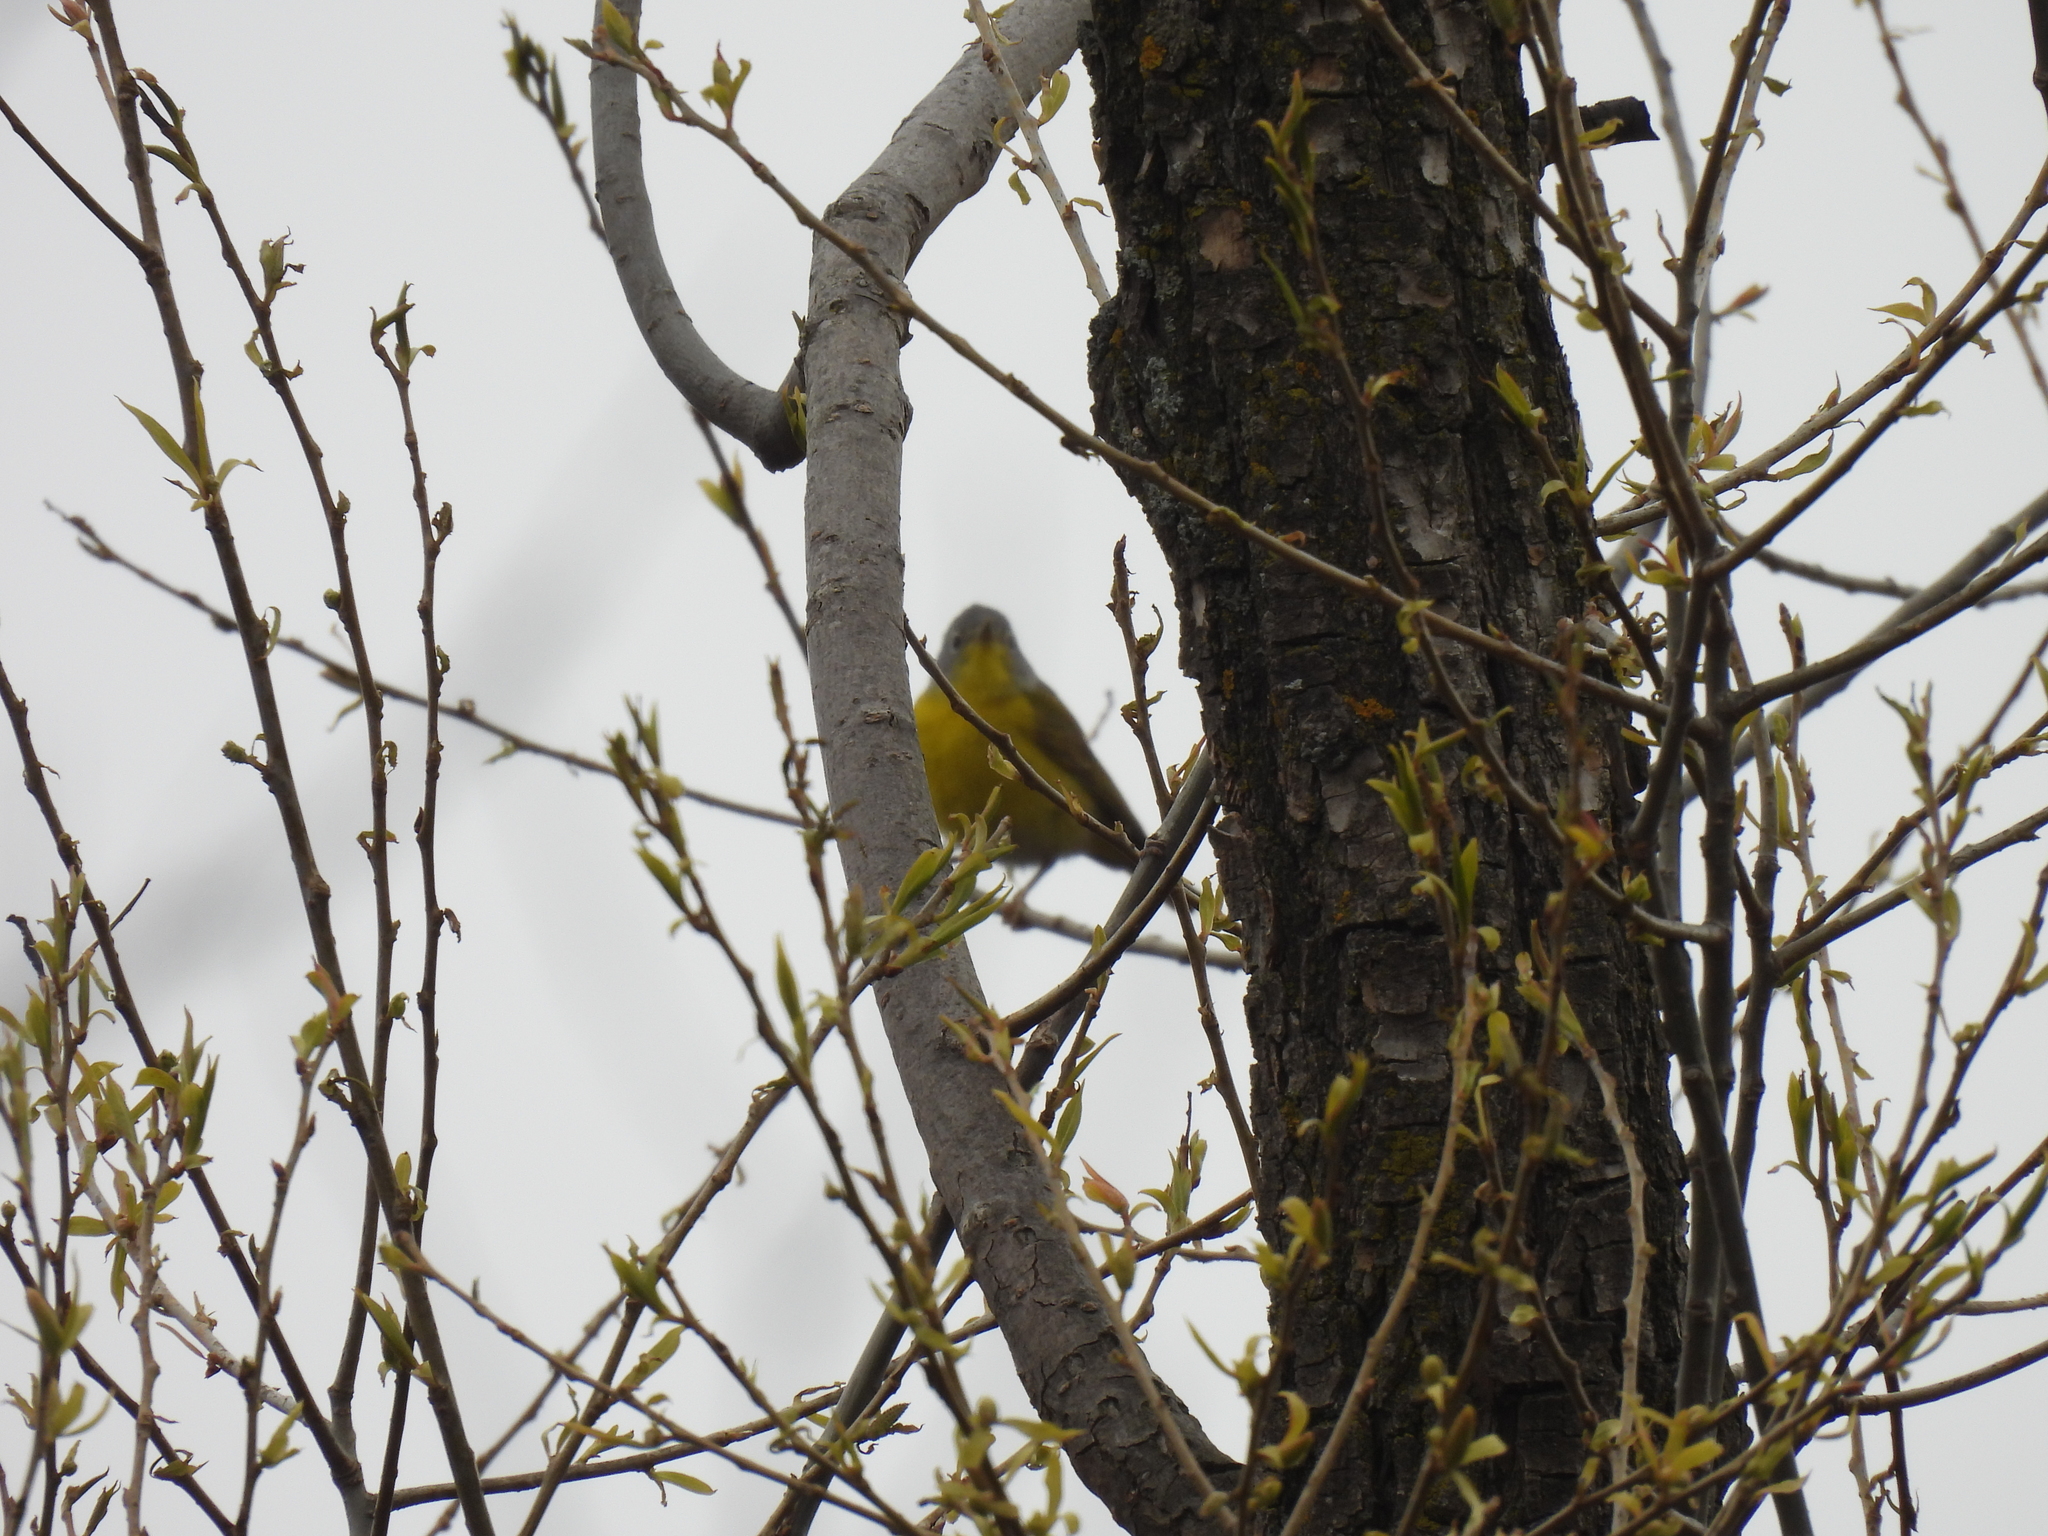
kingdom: Animalia
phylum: Chordata
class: Aves
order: Passeriformes
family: Parulidae
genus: Leiothlypis
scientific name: Leiothlypis ruficapilla
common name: Nashville warbler
